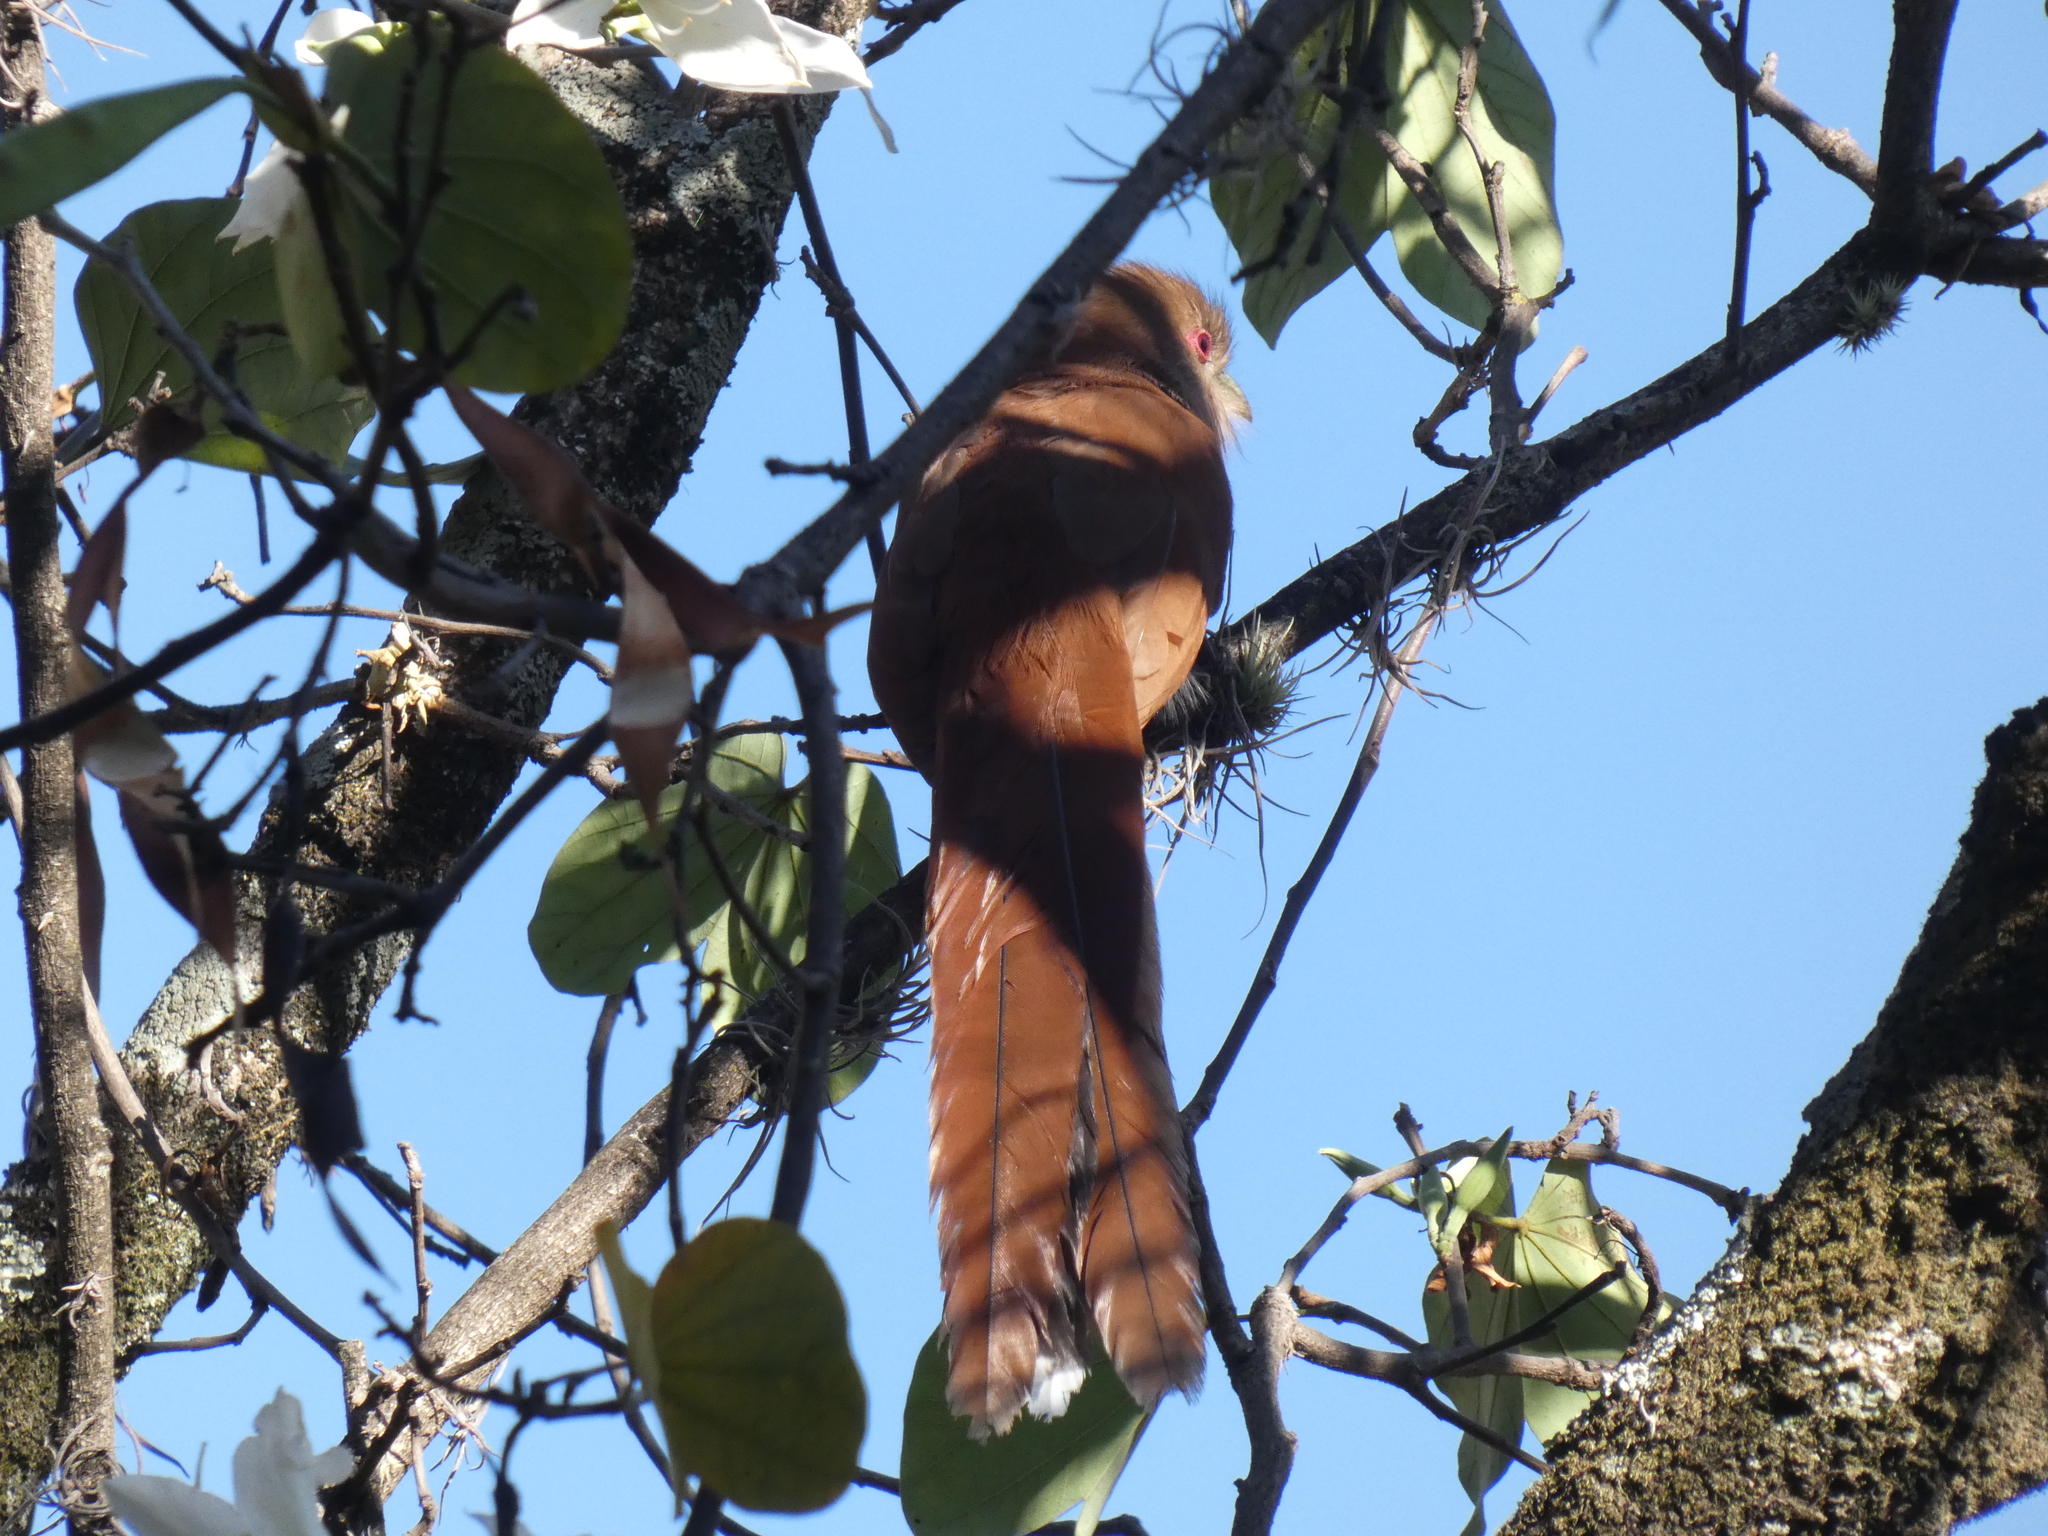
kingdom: Animalia
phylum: Chordata
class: Aves
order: Cuculiformes
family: Cuculidae
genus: Piaya
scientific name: Piaya cayana
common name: Squirrel cuckoo
